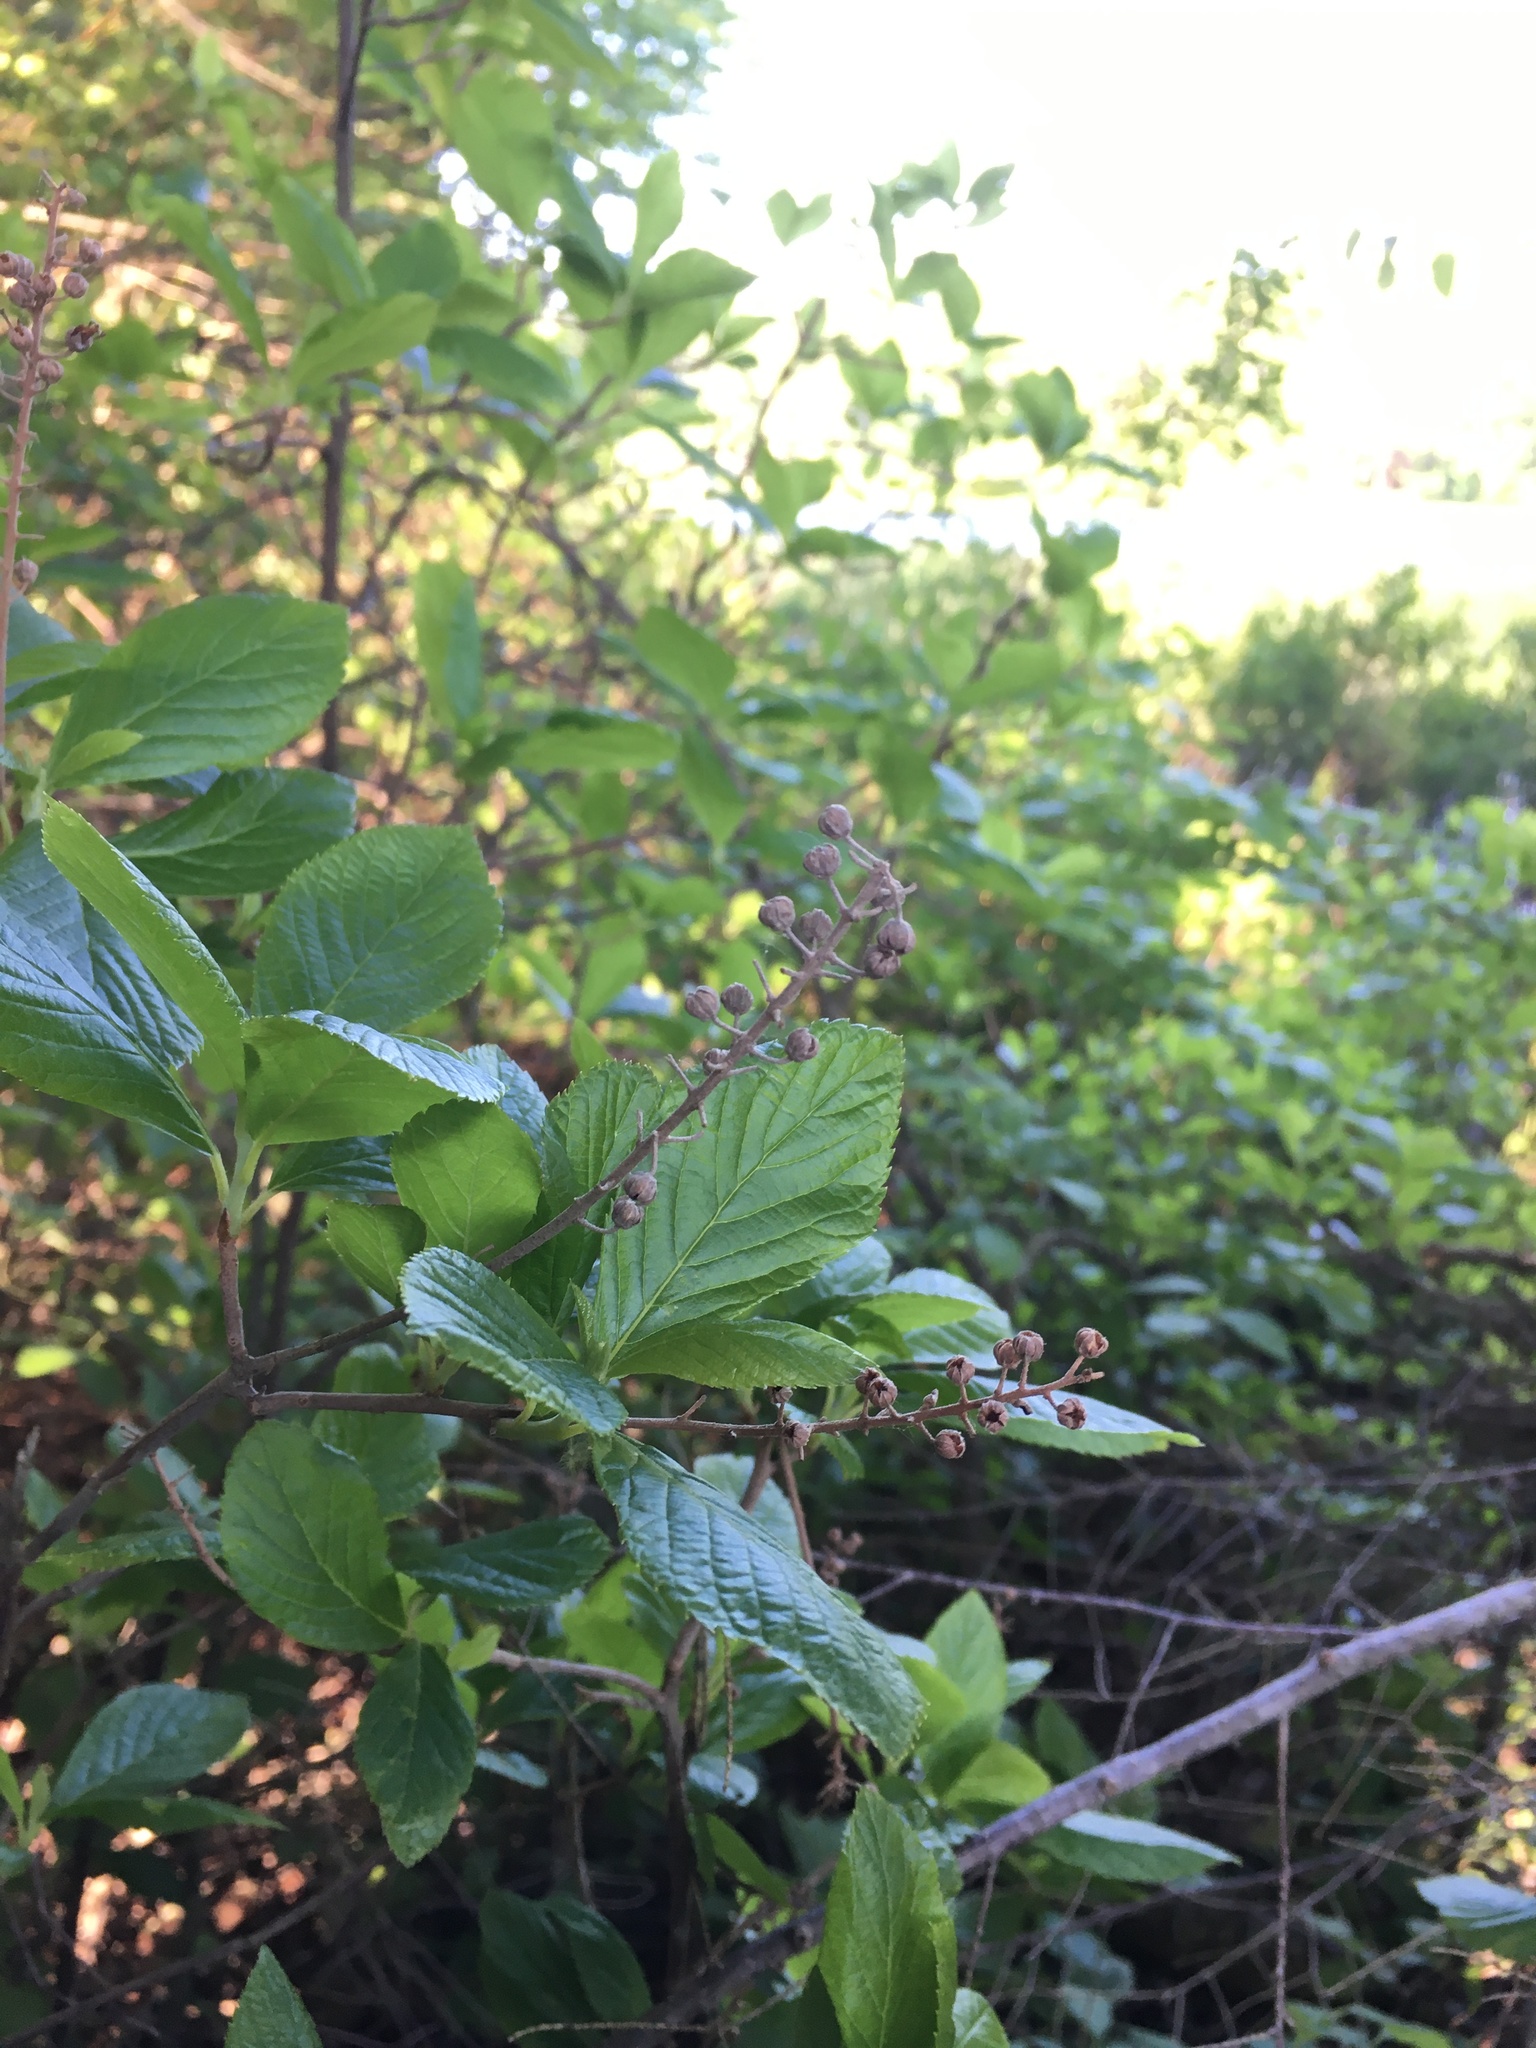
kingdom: Plantae
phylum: Tracheophyta
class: Magnoliopsida
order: Ericales
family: Clethraceae
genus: Clethra
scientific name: Clethra alnifolia
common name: Sweet pepperbush
